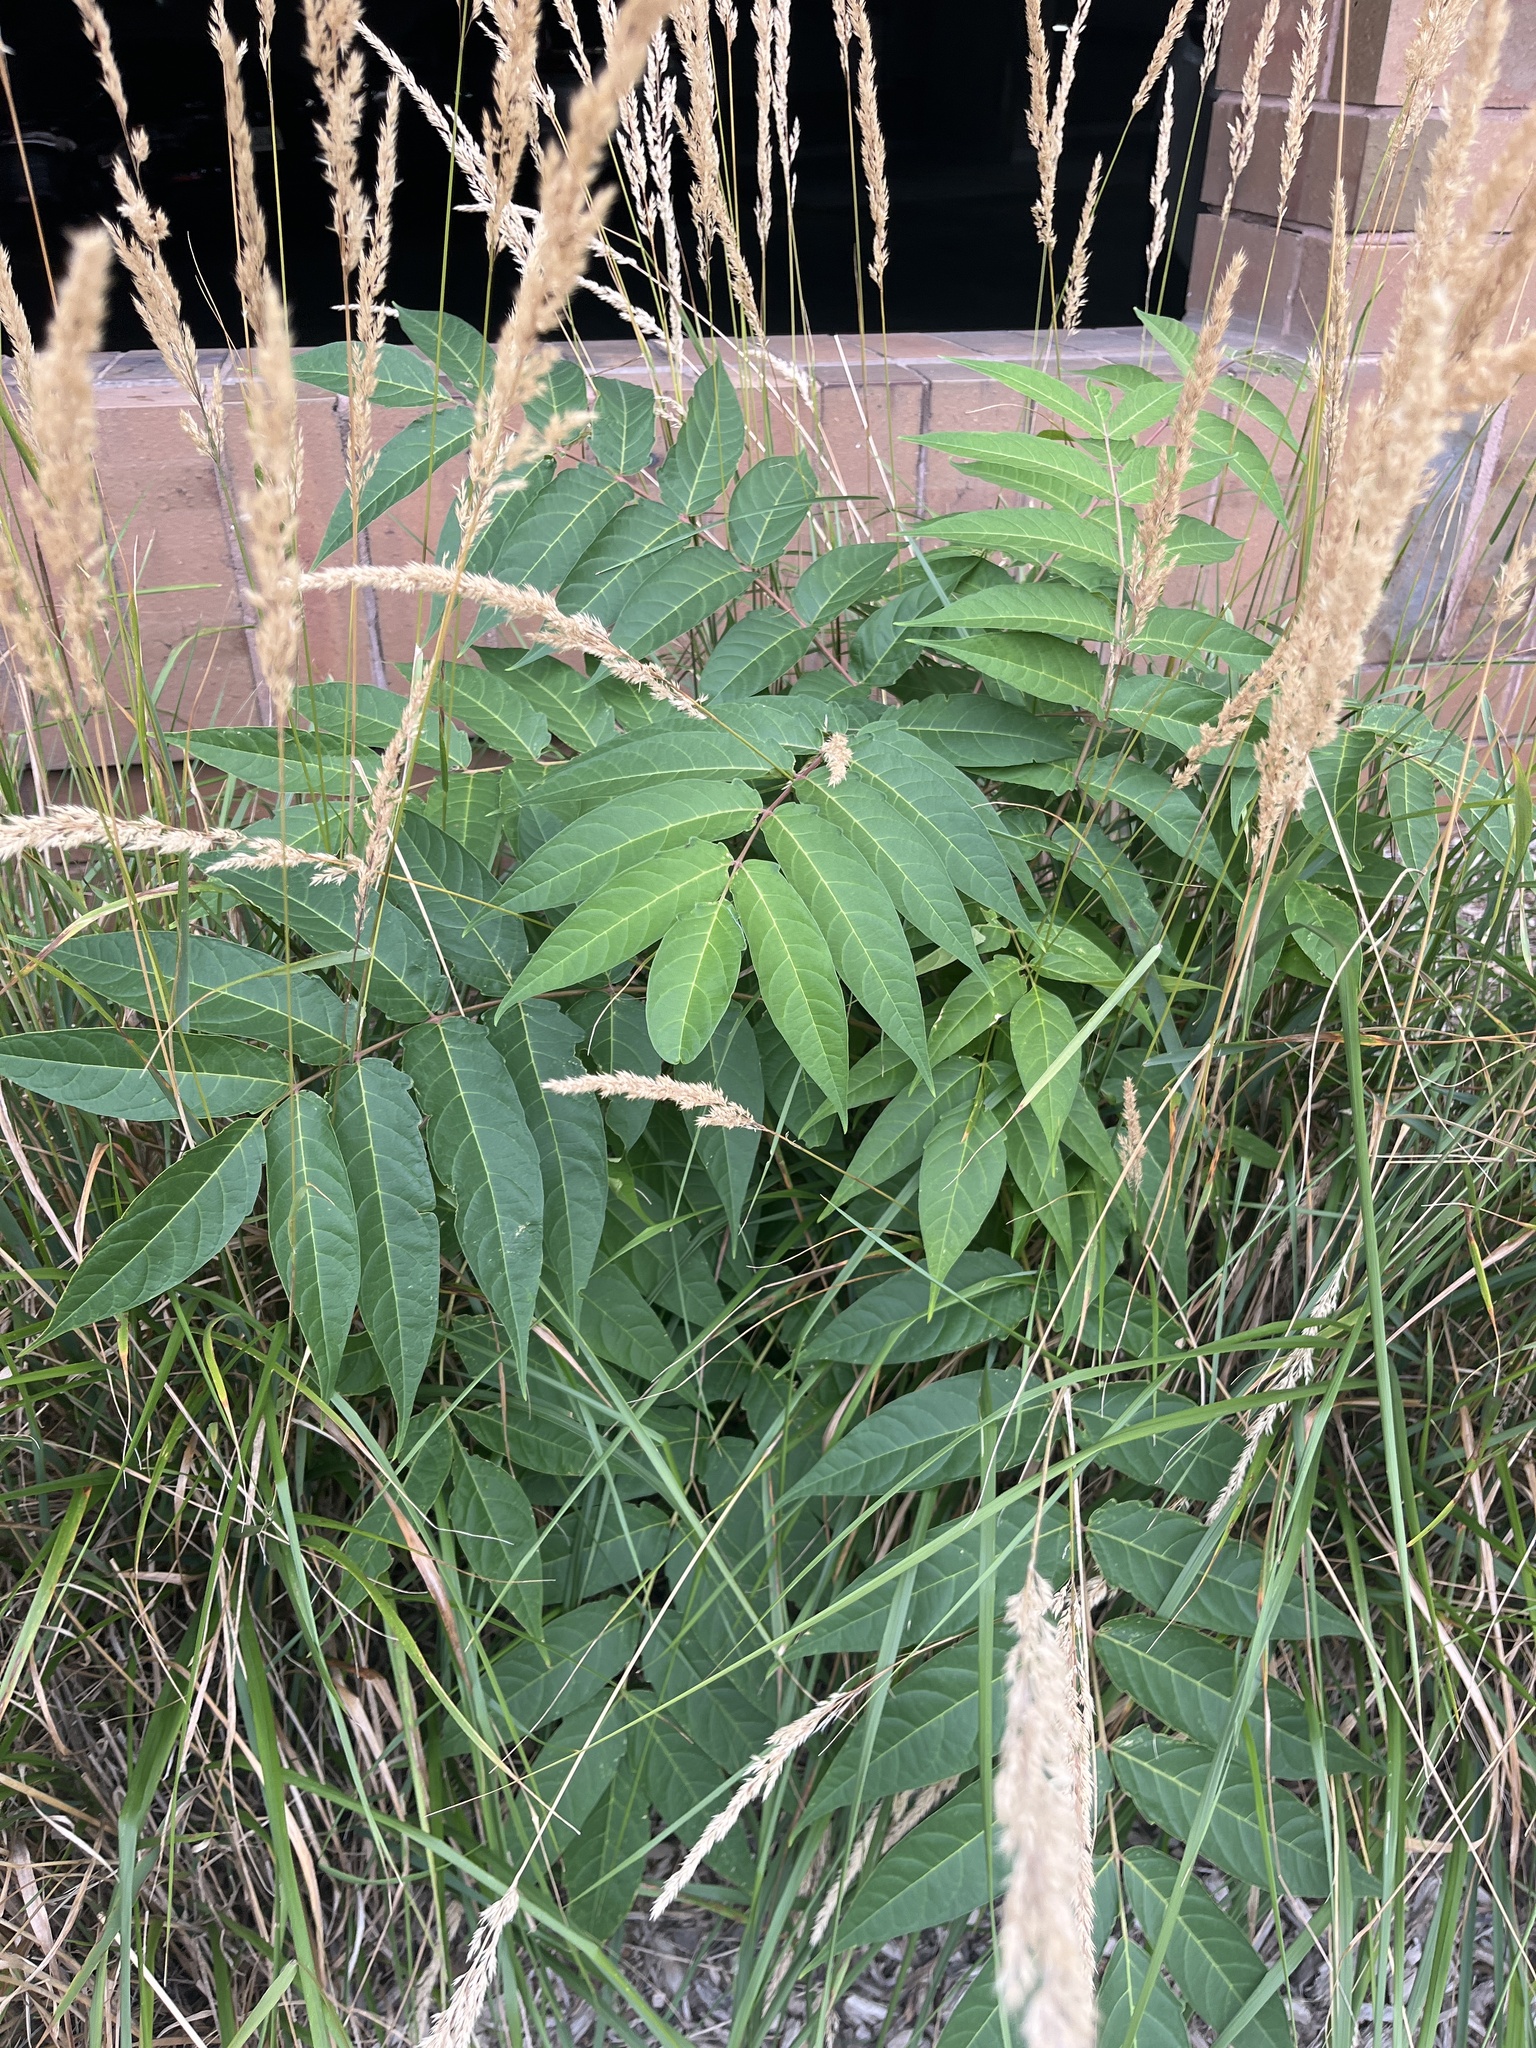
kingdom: Plantae
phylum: Tracheophyta
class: Magnoliopsida
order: Sapindales
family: Simaroubaceae
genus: Ailanthus
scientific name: Ailanthus altissima
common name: Tree-of-heaven
